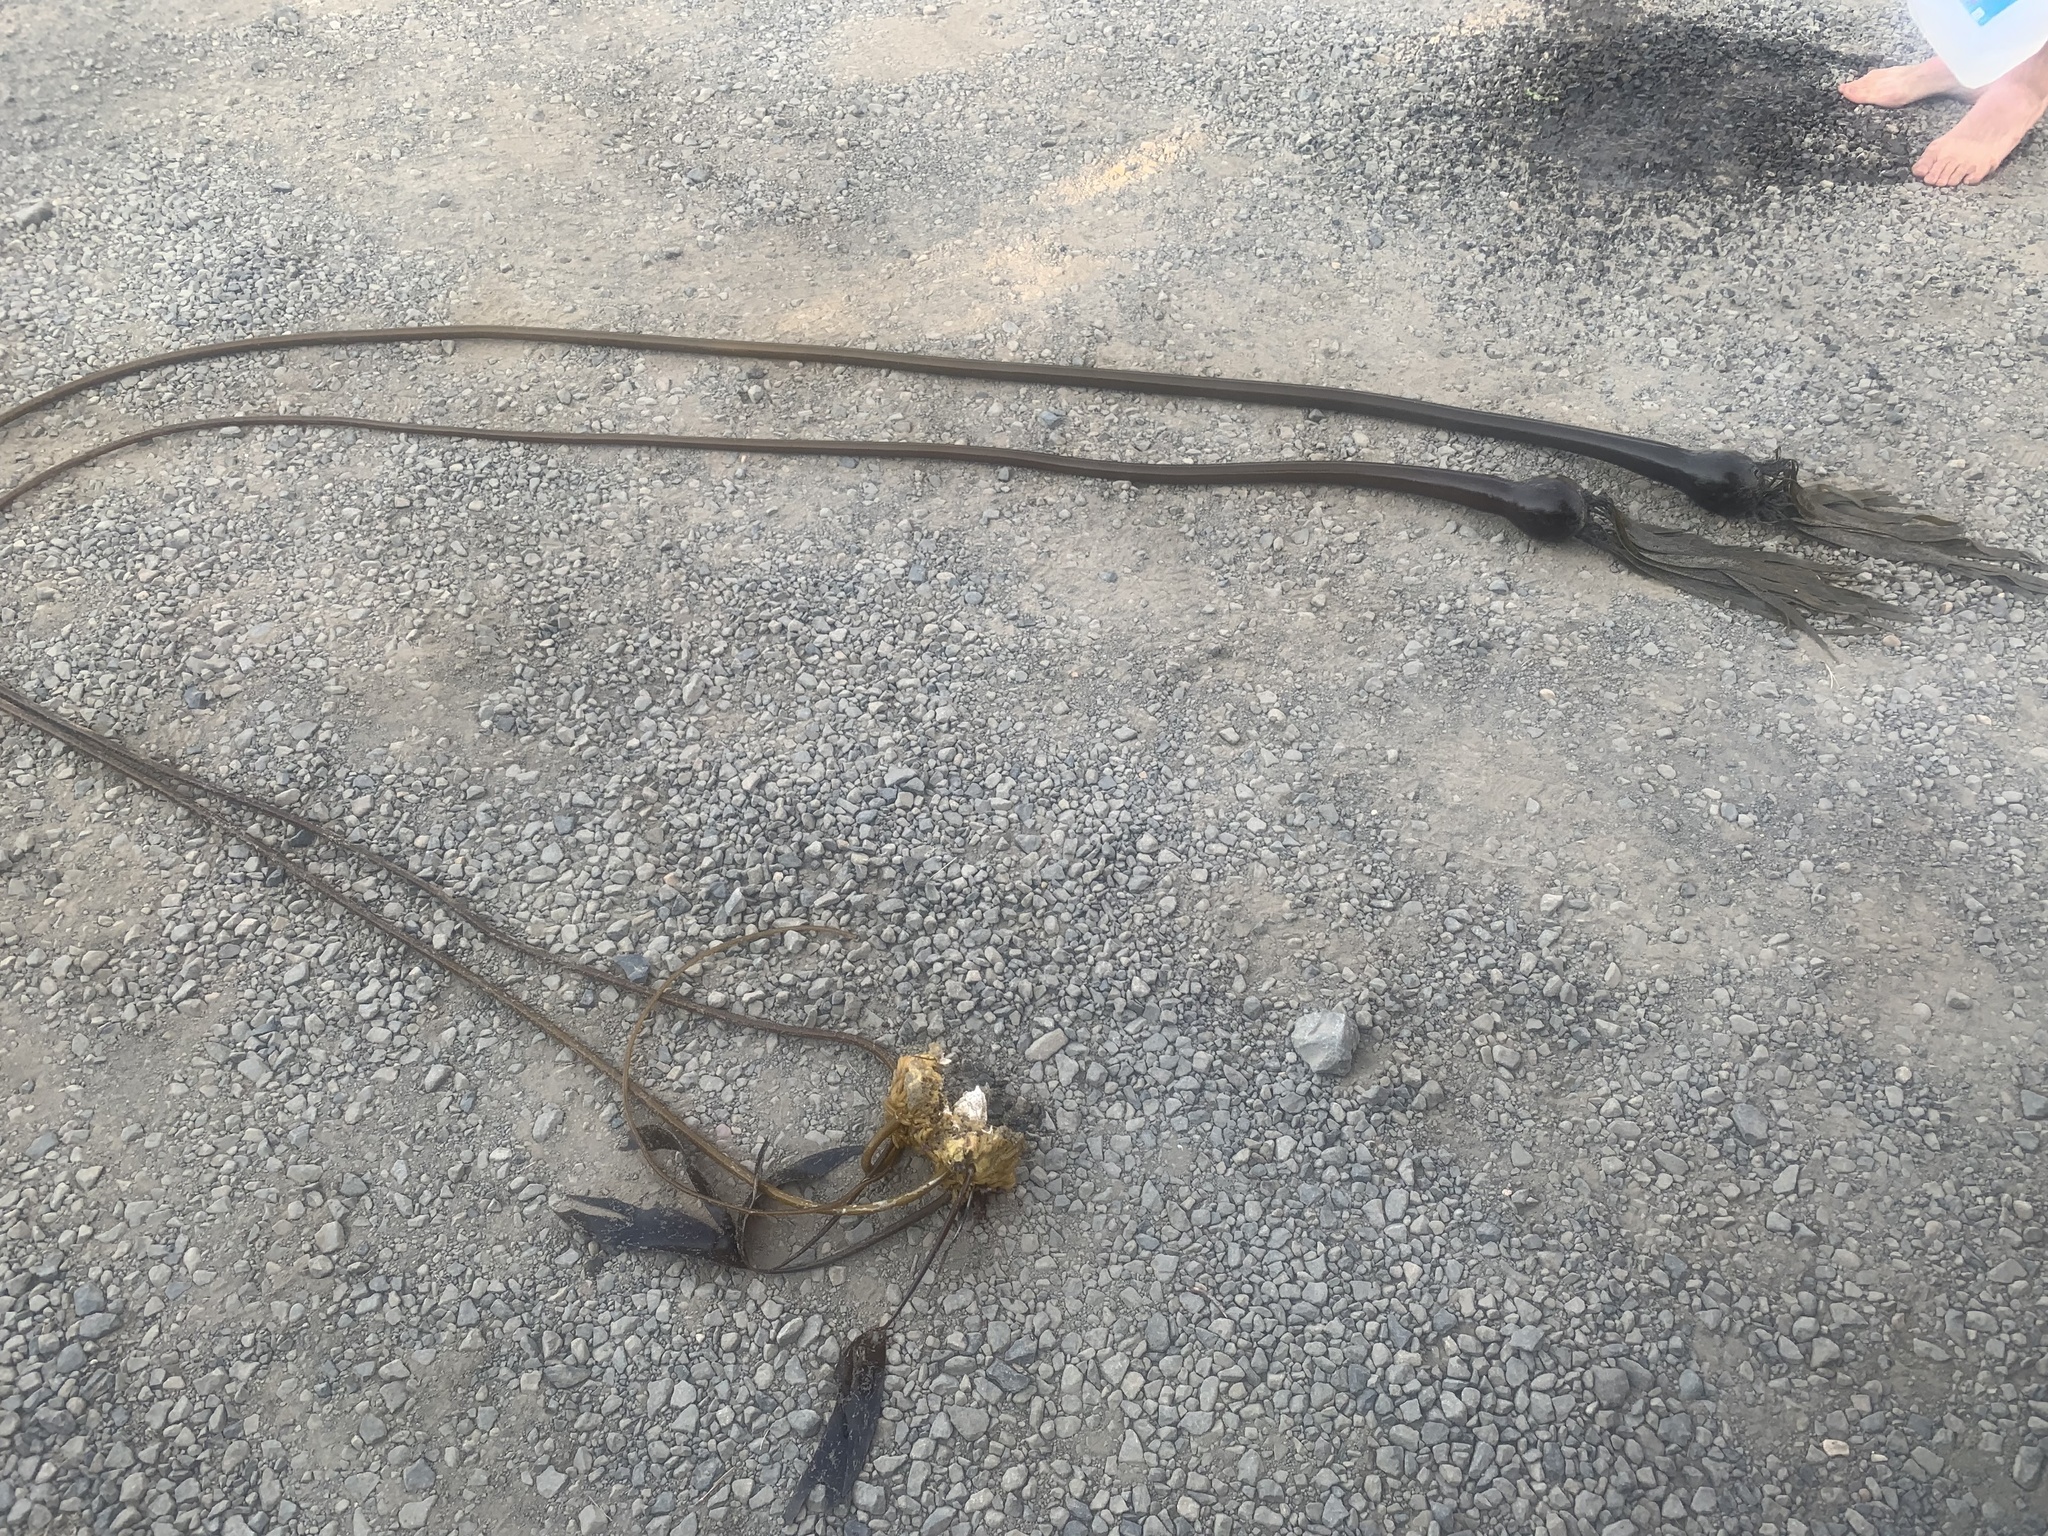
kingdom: Chromista
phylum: Ochrophyta
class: Phaeophyceae
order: Laminariales
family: Laminariaceae
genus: Nereocystis
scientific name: Nereocystis luetkeana
